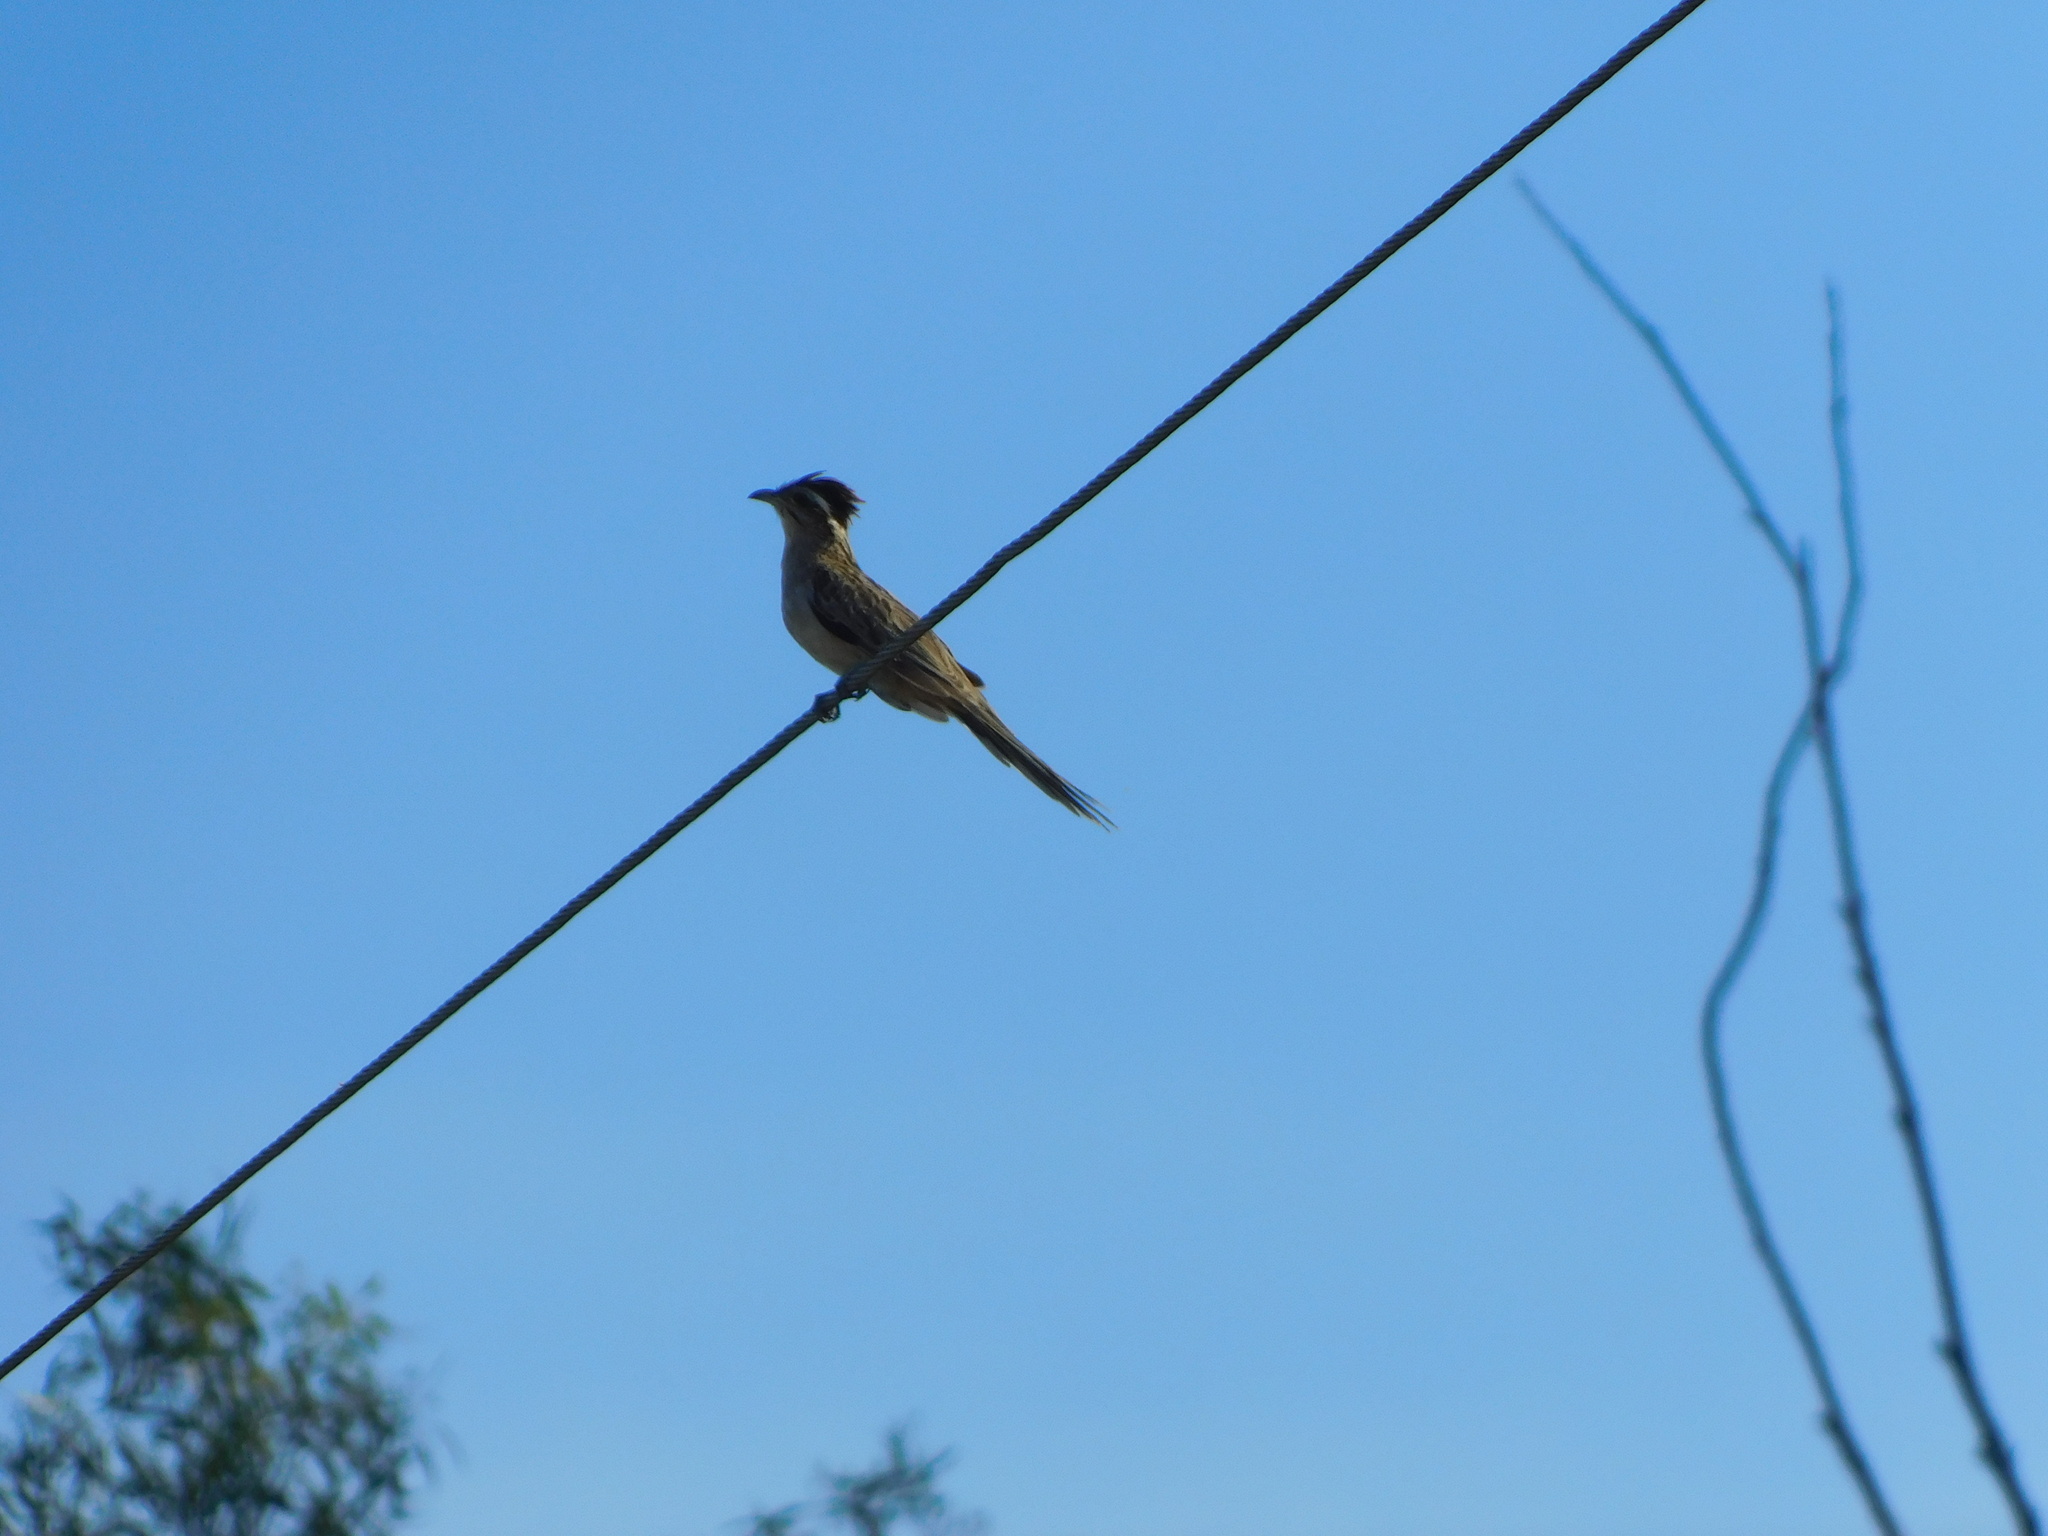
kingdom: Animalia
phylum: Chordata
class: Aves
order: Cuculiformes
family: Cuculidae
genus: Tapera
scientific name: Tapera naevia
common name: Striped cuckoo
